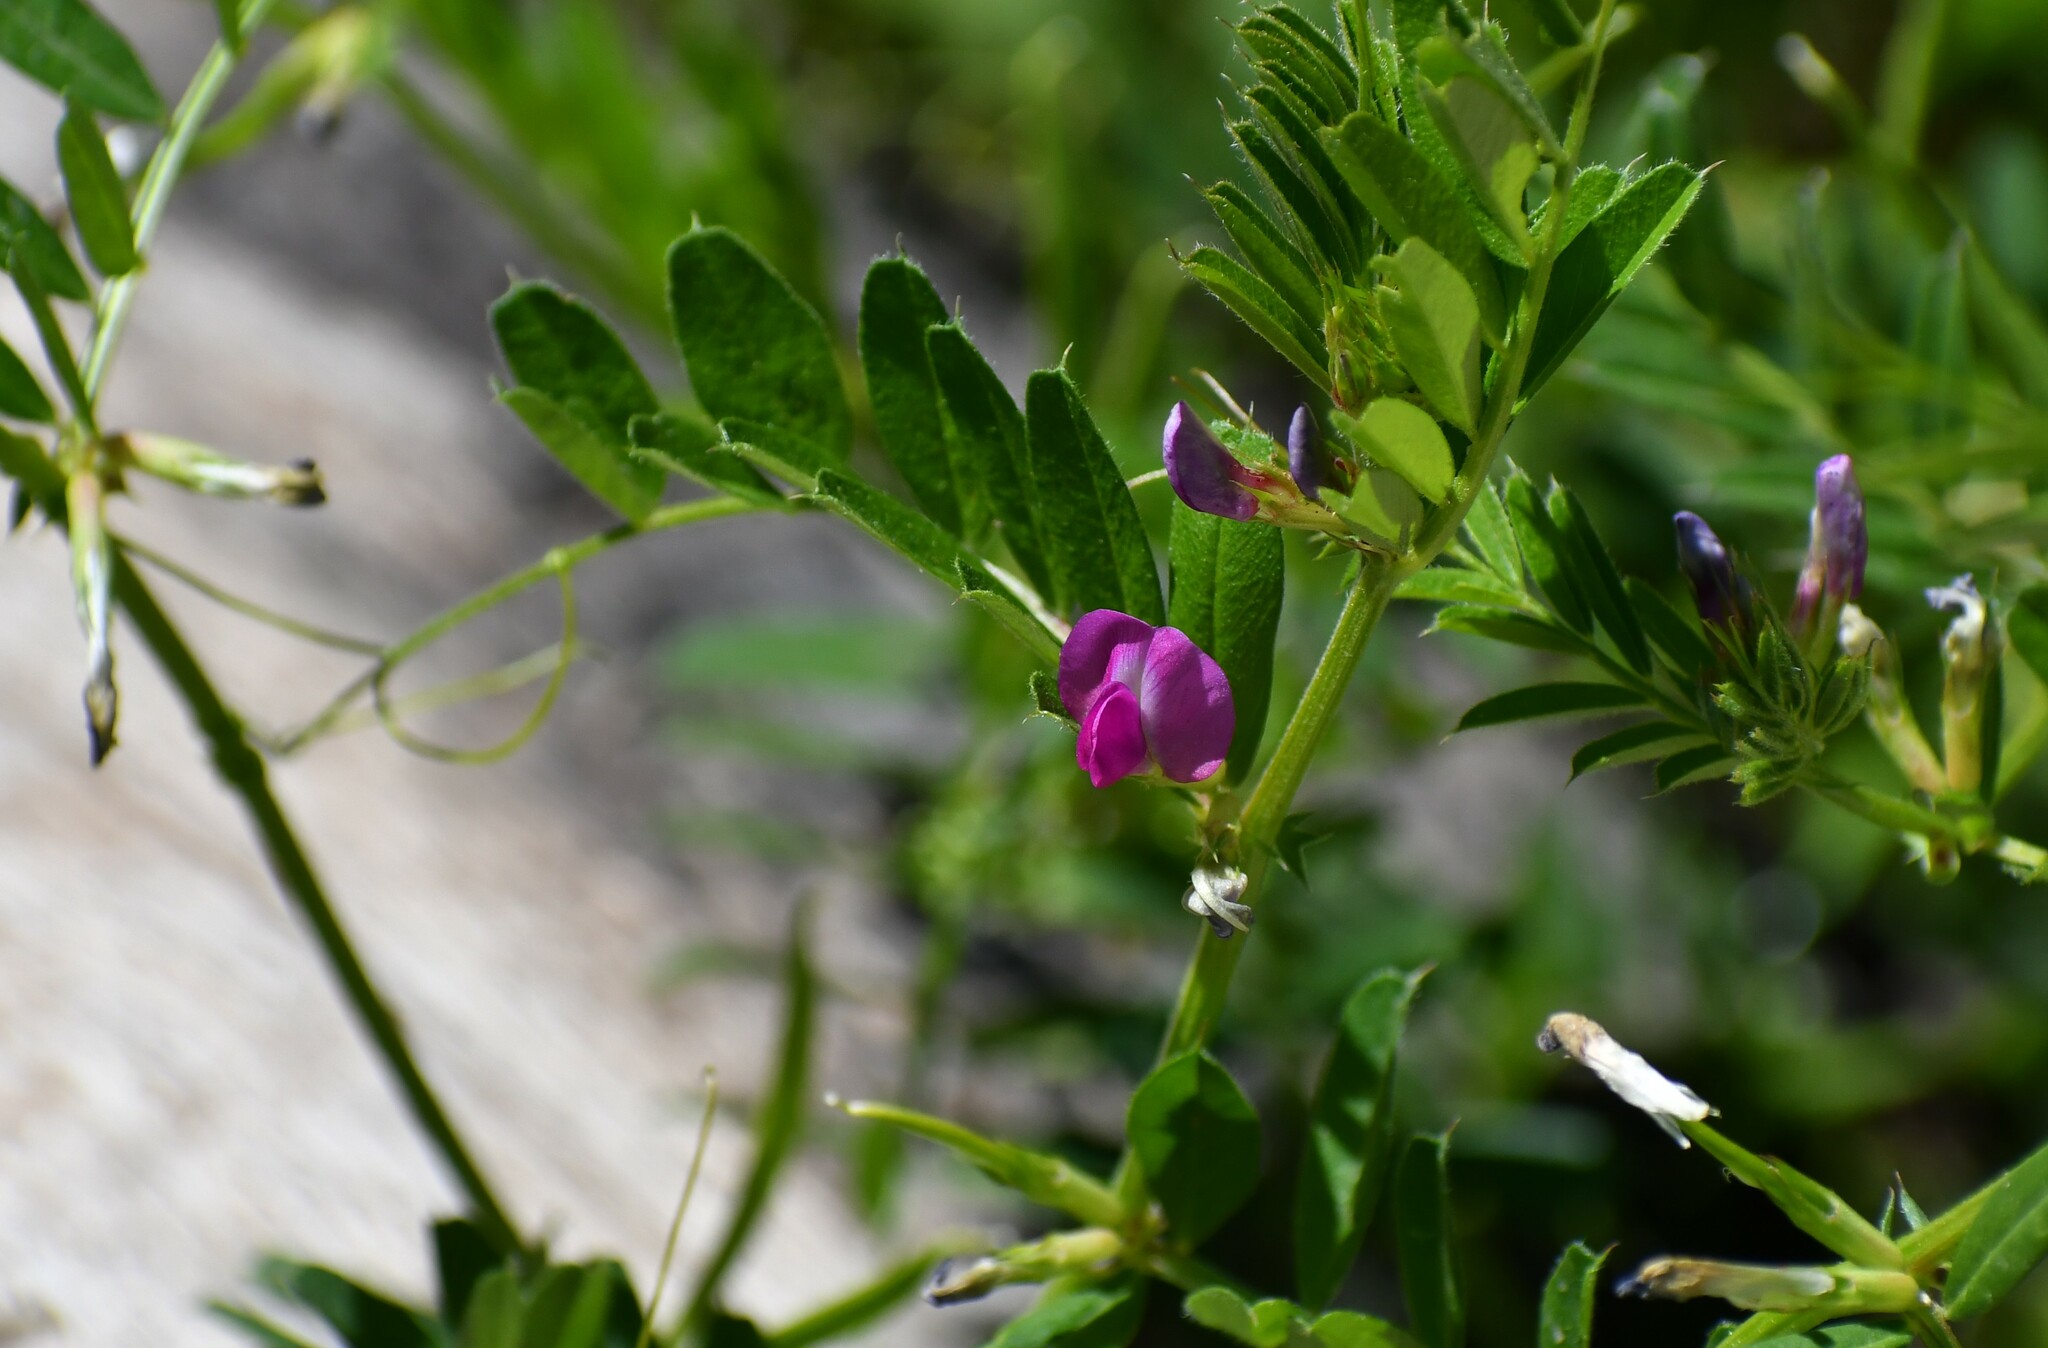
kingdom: Plantae
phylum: Tracheophyta
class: Magnoliopsida
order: Fabales
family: Fabaceae
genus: Vicia
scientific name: Vicia sativa
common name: Garden vetch
